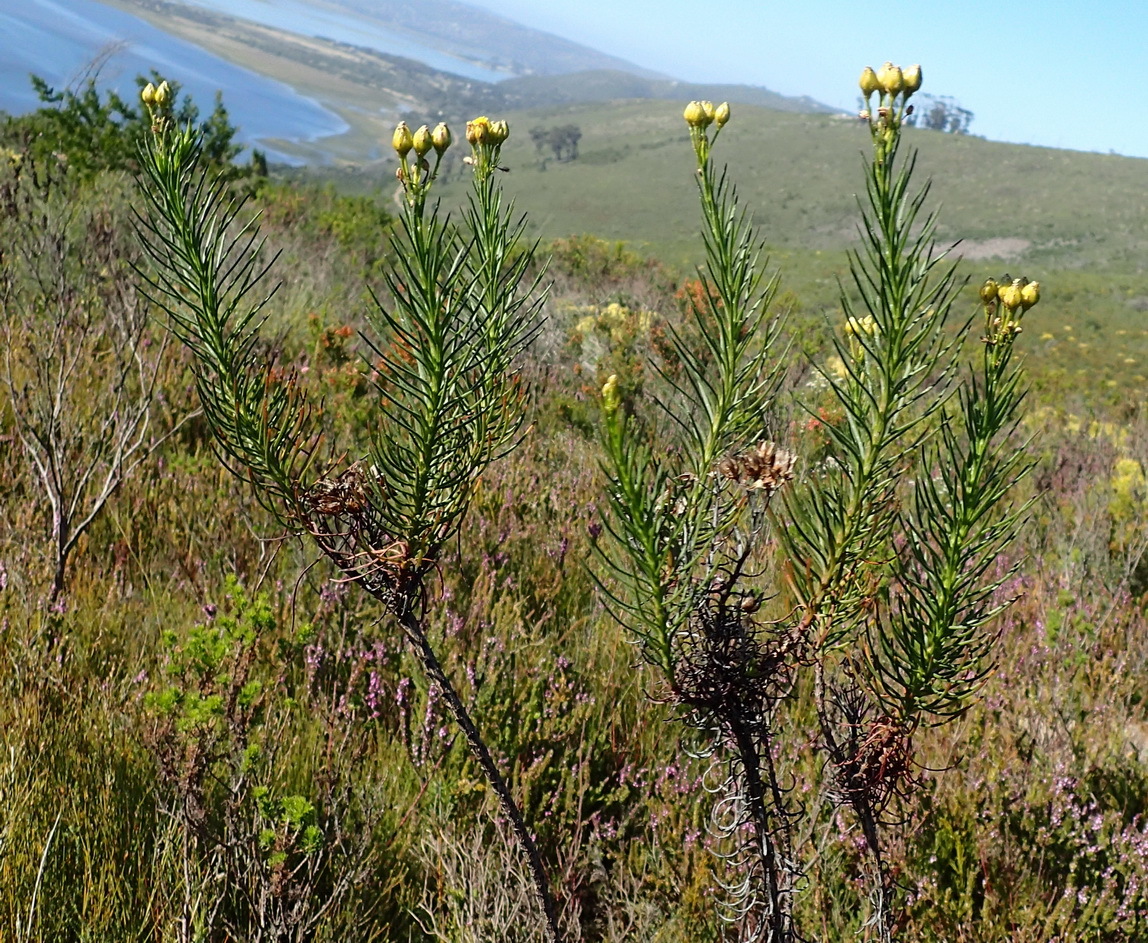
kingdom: Plantae
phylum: Tracheophyta
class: Magnoliopsida
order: Asterales
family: Asteraceae
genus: Athanasia
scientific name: Athanasia linifolia
